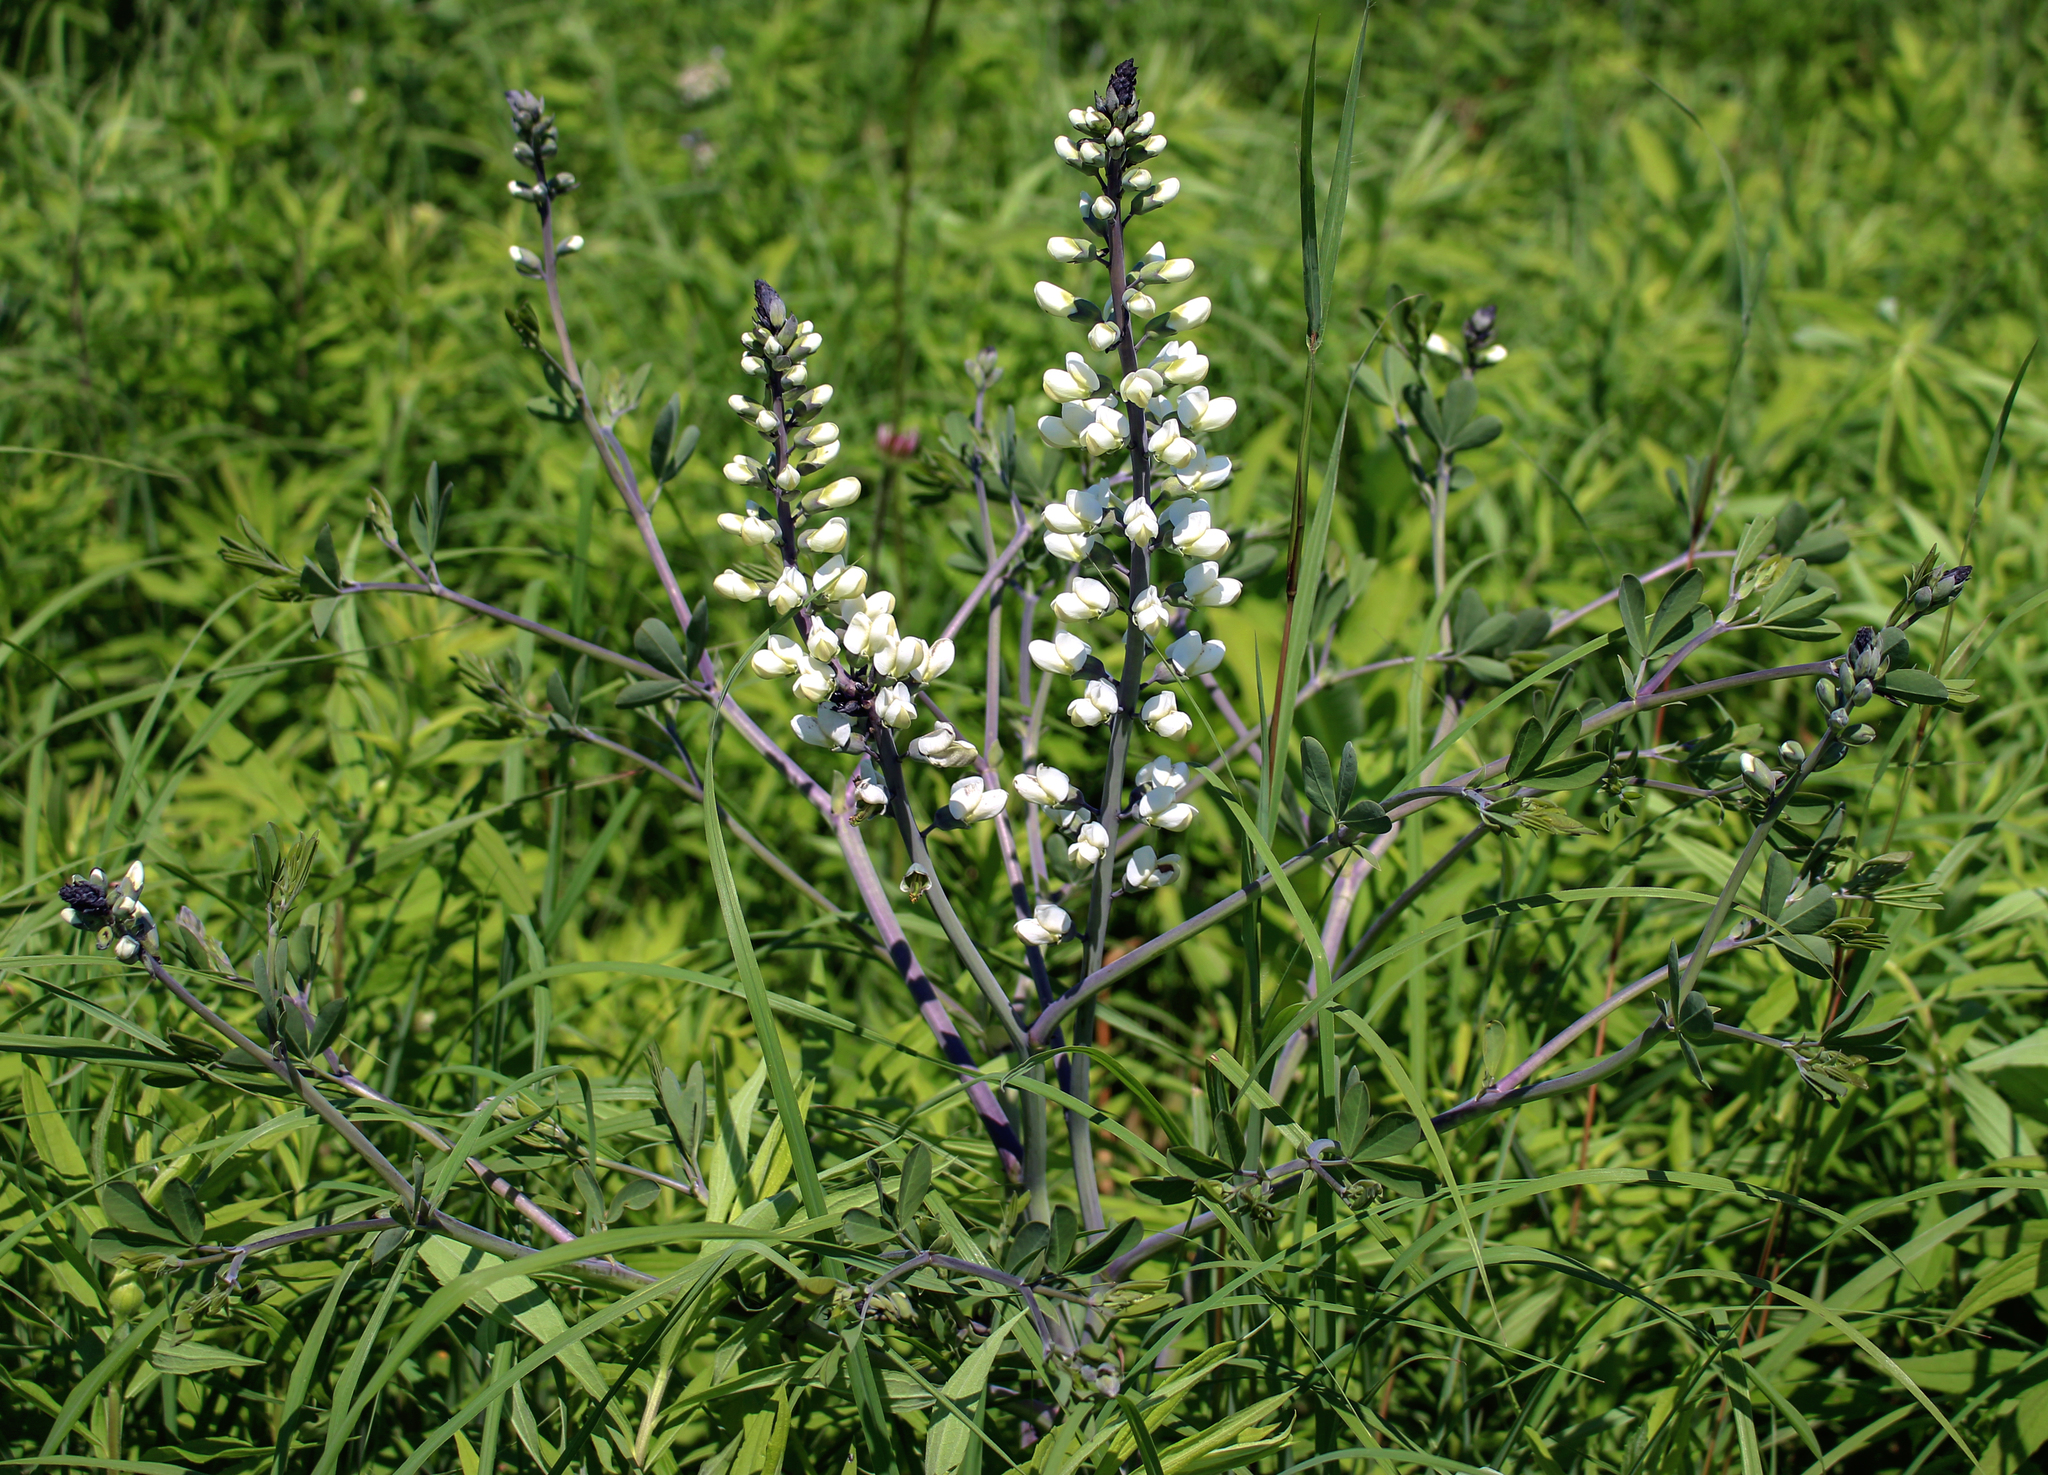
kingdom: Plantae
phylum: Tracheophyta
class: Magnoliopsida
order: Fabales
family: Fabaceae
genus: Baptisia
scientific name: Baptisia alba
